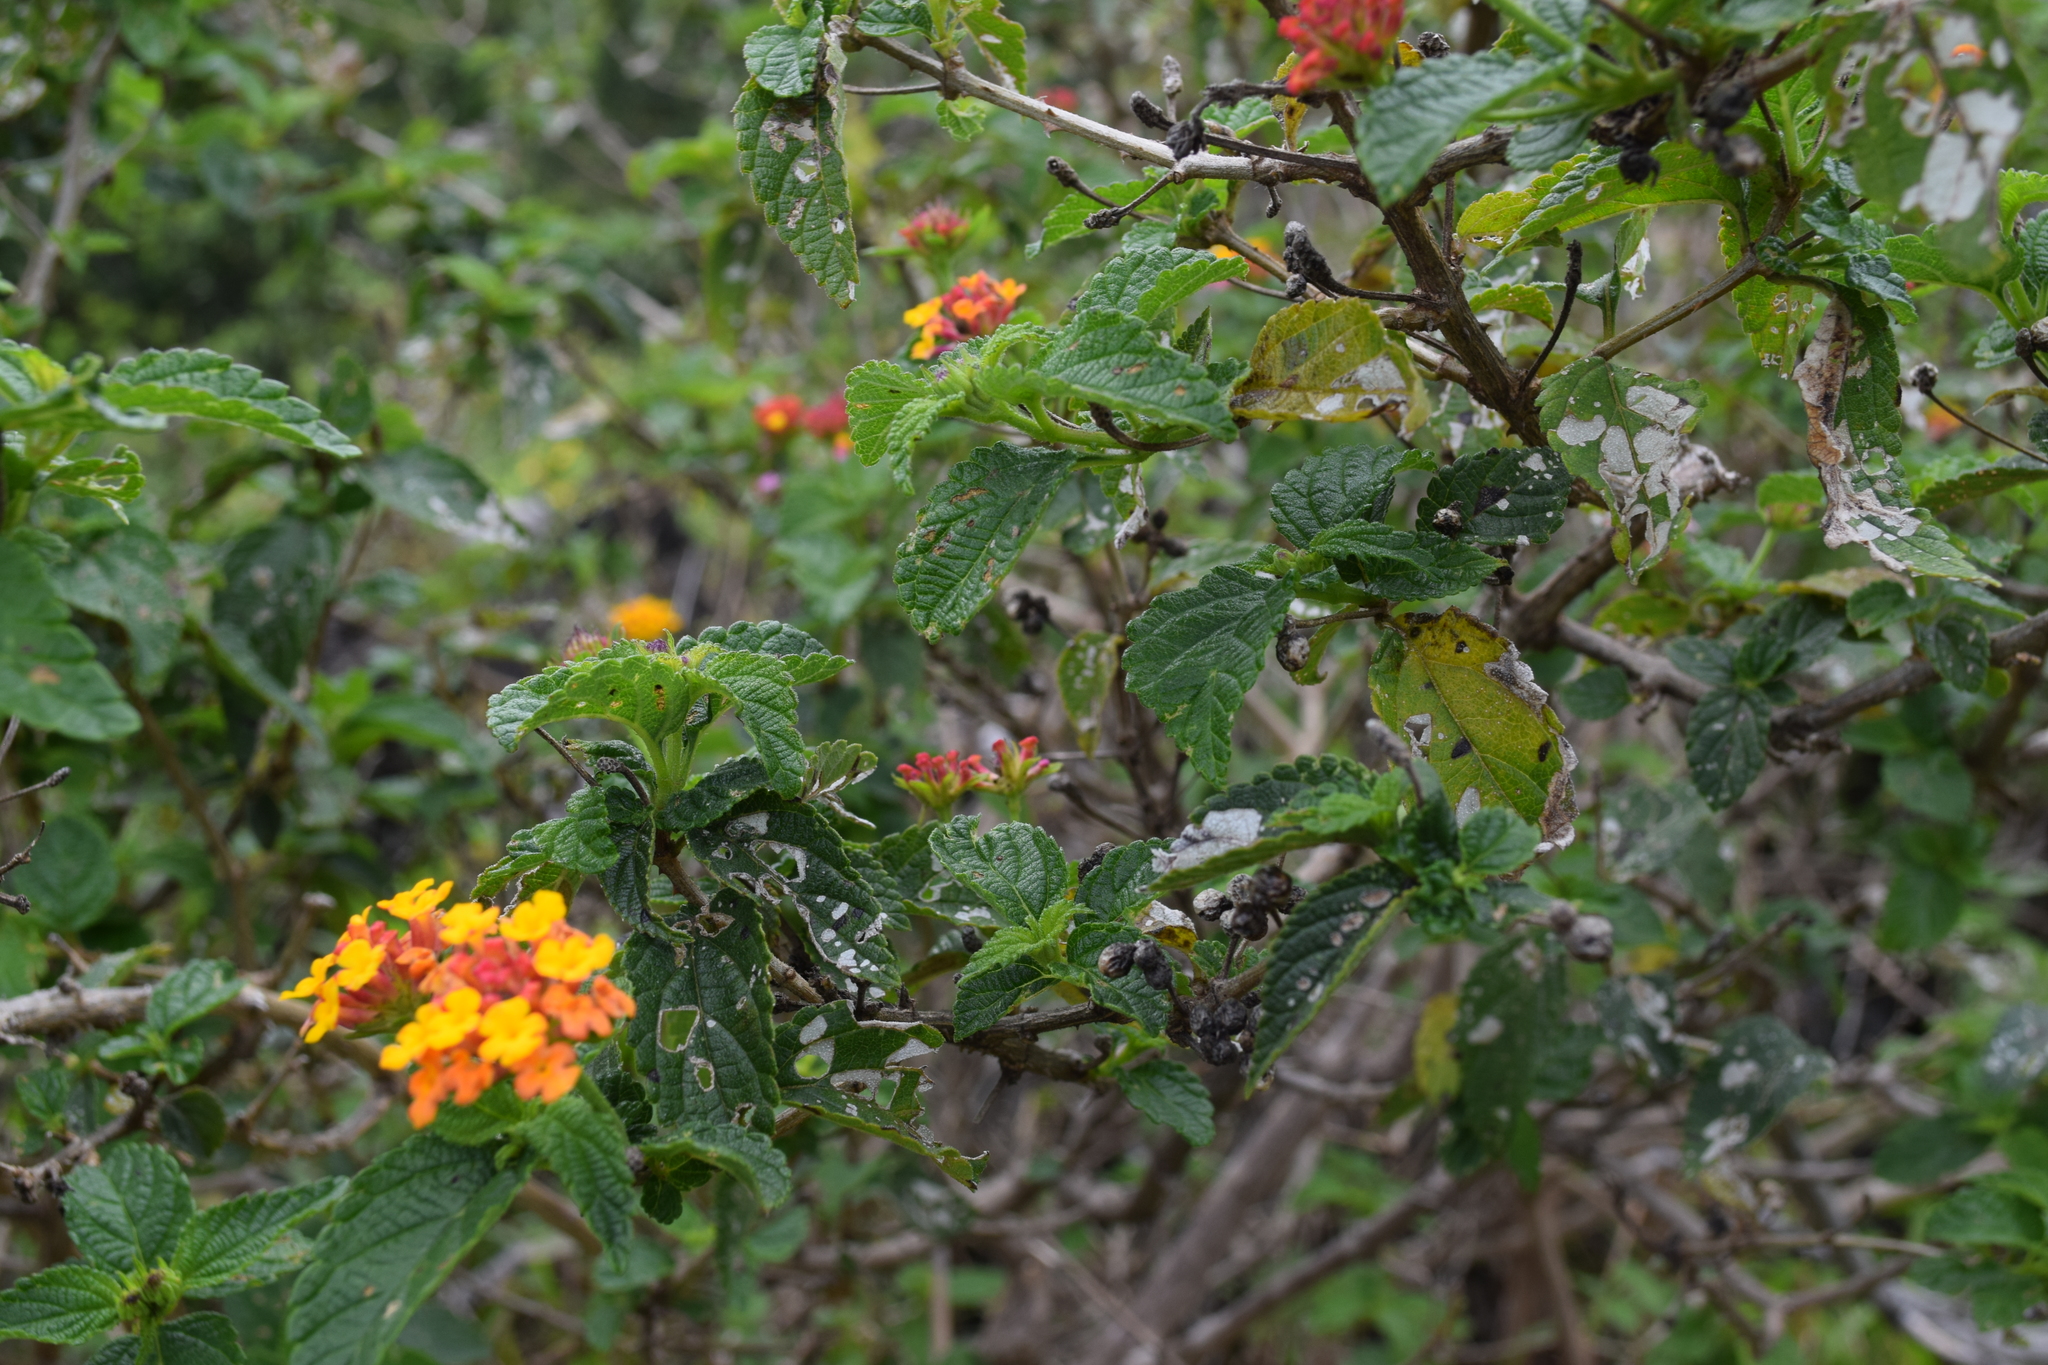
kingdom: Plantae
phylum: Tracheophyta
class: Magnoliopsida
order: Lamiales
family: Verbenaceae
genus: Lantana
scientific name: Lantana camara
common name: Lantana
